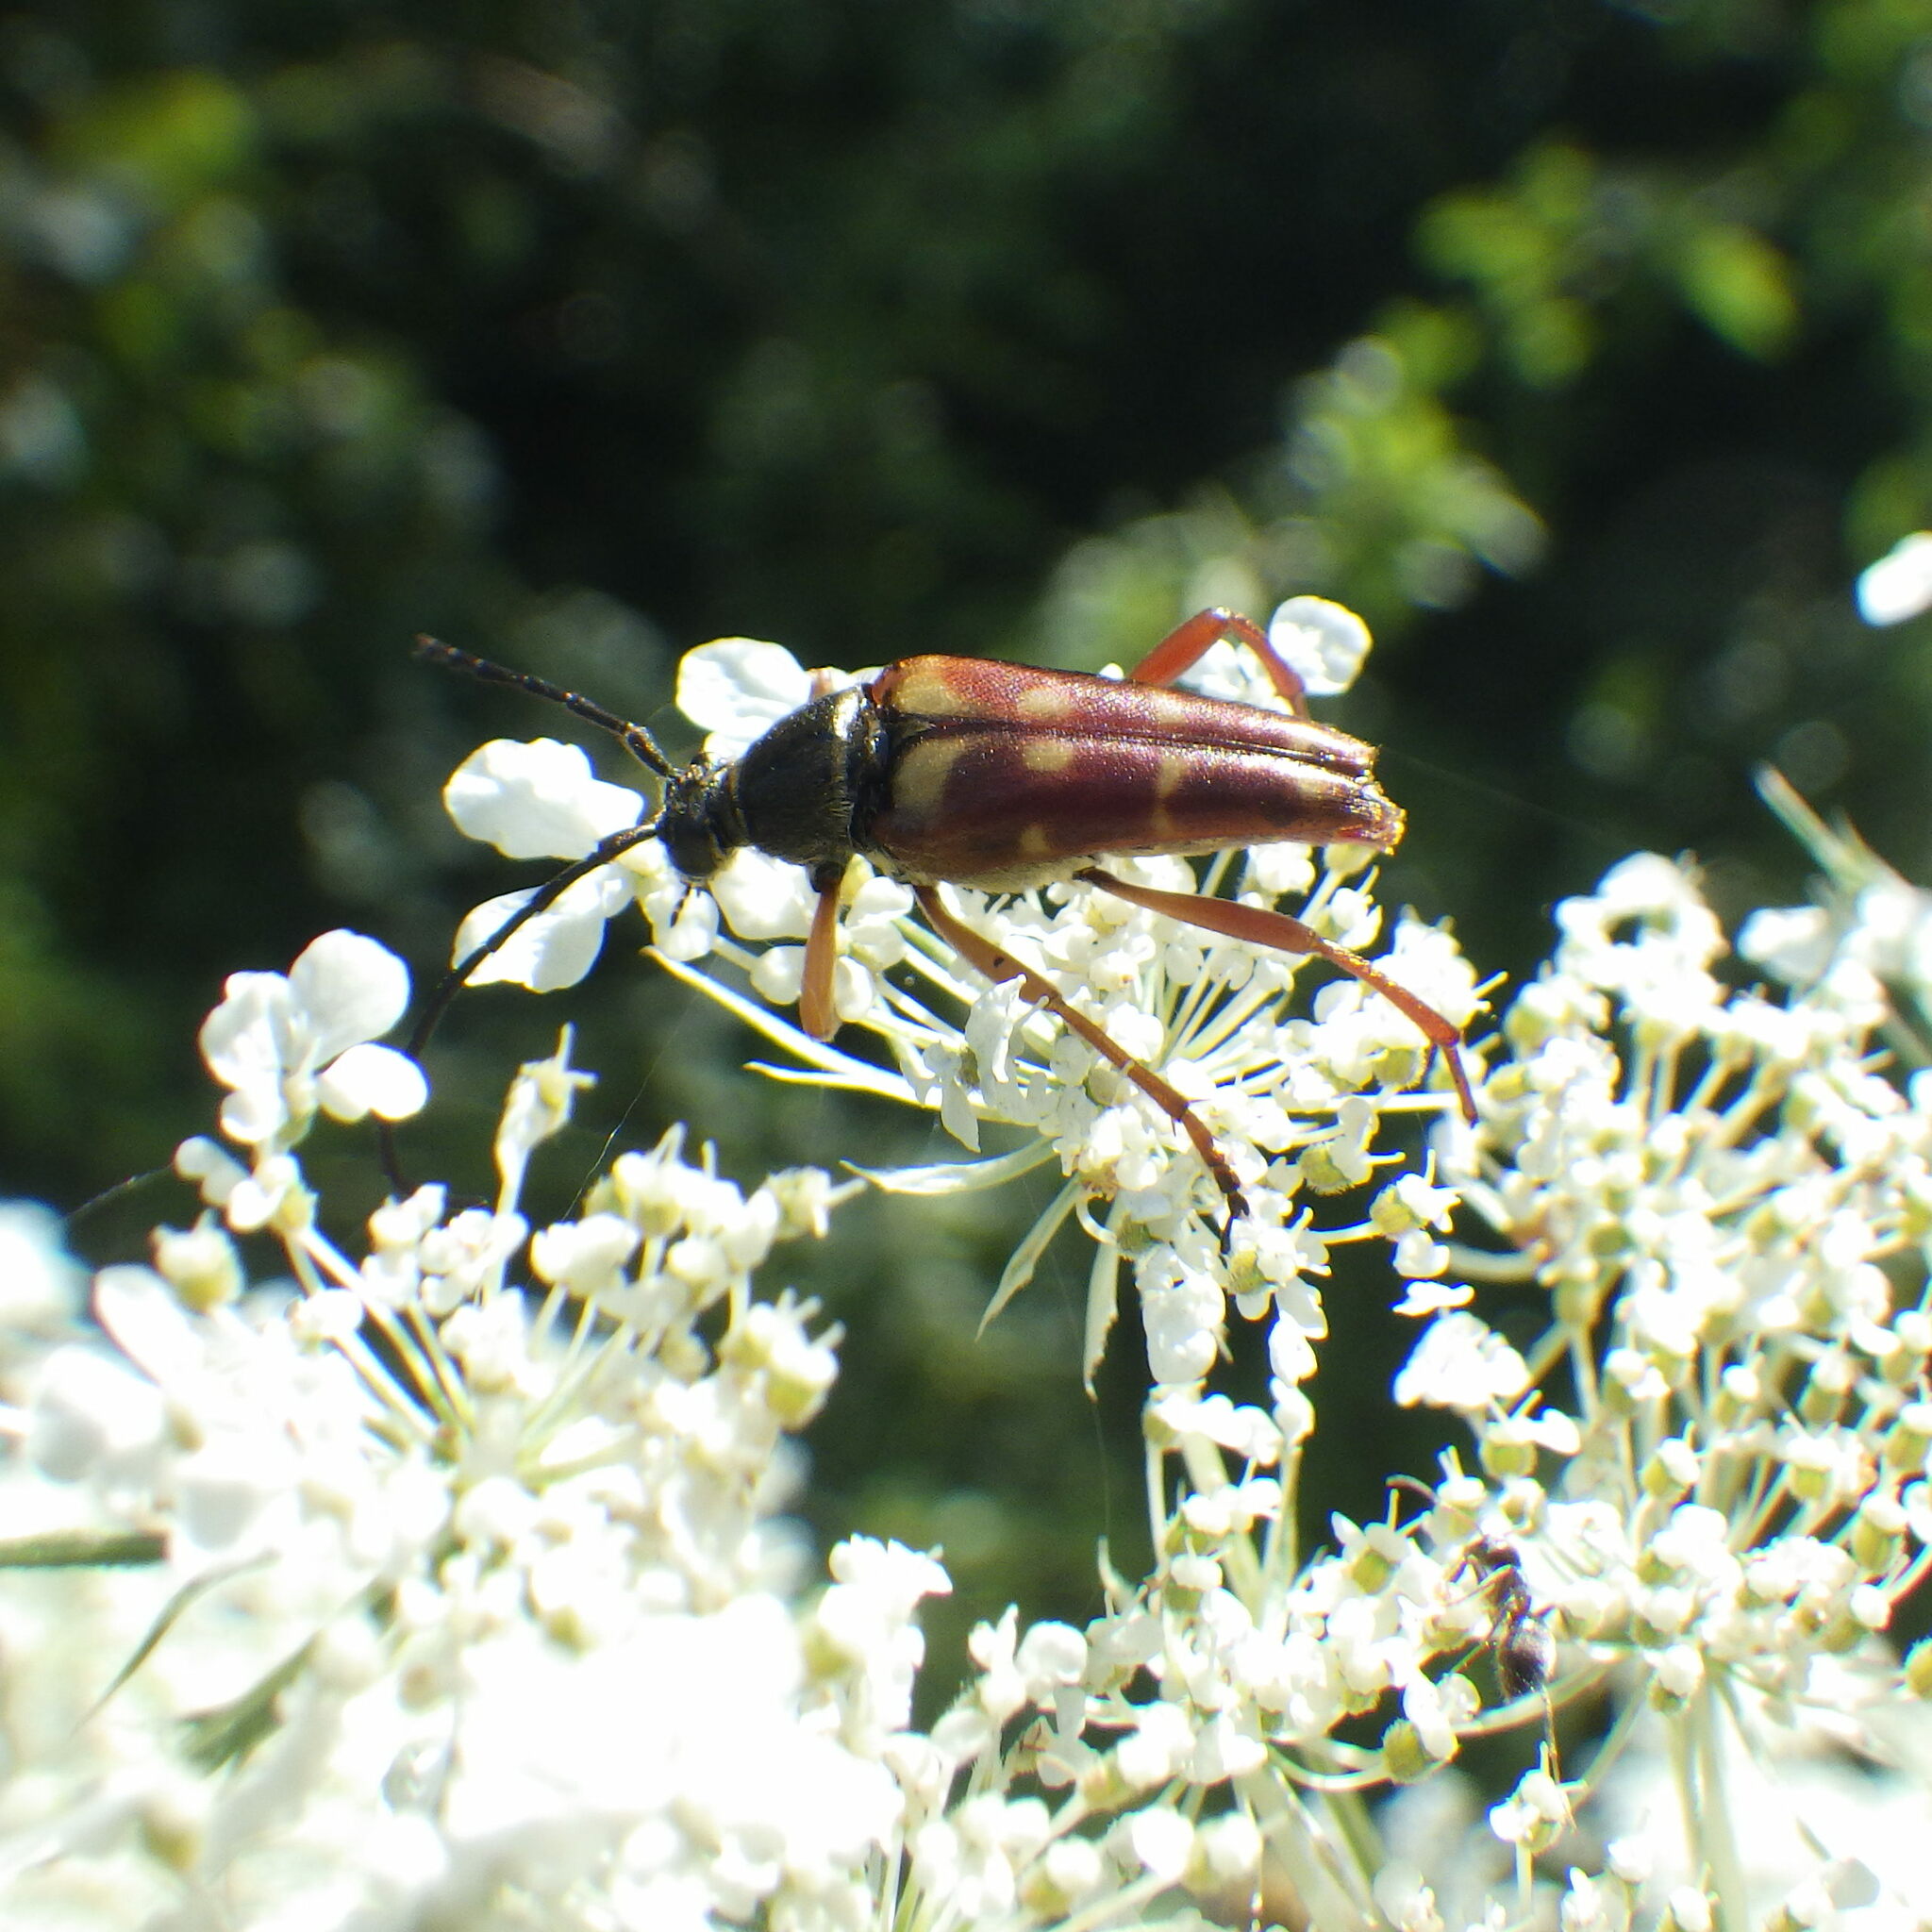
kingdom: Animalia
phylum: Arthropoda
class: Insecta
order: Coleoptera
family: Cerambycidae
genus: Typocerus
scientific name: Typocerus velutinus
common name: Banded longhorn beetle
